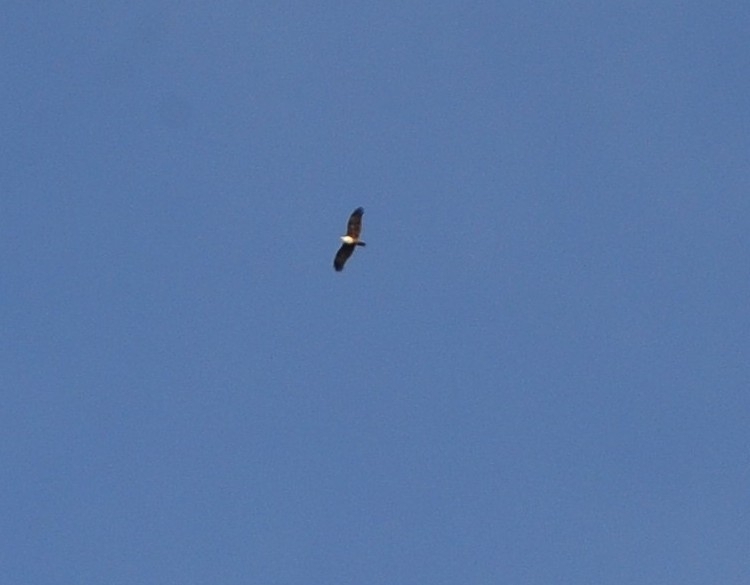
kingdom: Animalia
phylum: Chordata
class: Aves
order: Accipitriformes
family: Accipitridae
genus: Haliastur
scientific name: Haliastur indus
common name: Brahminy kite
